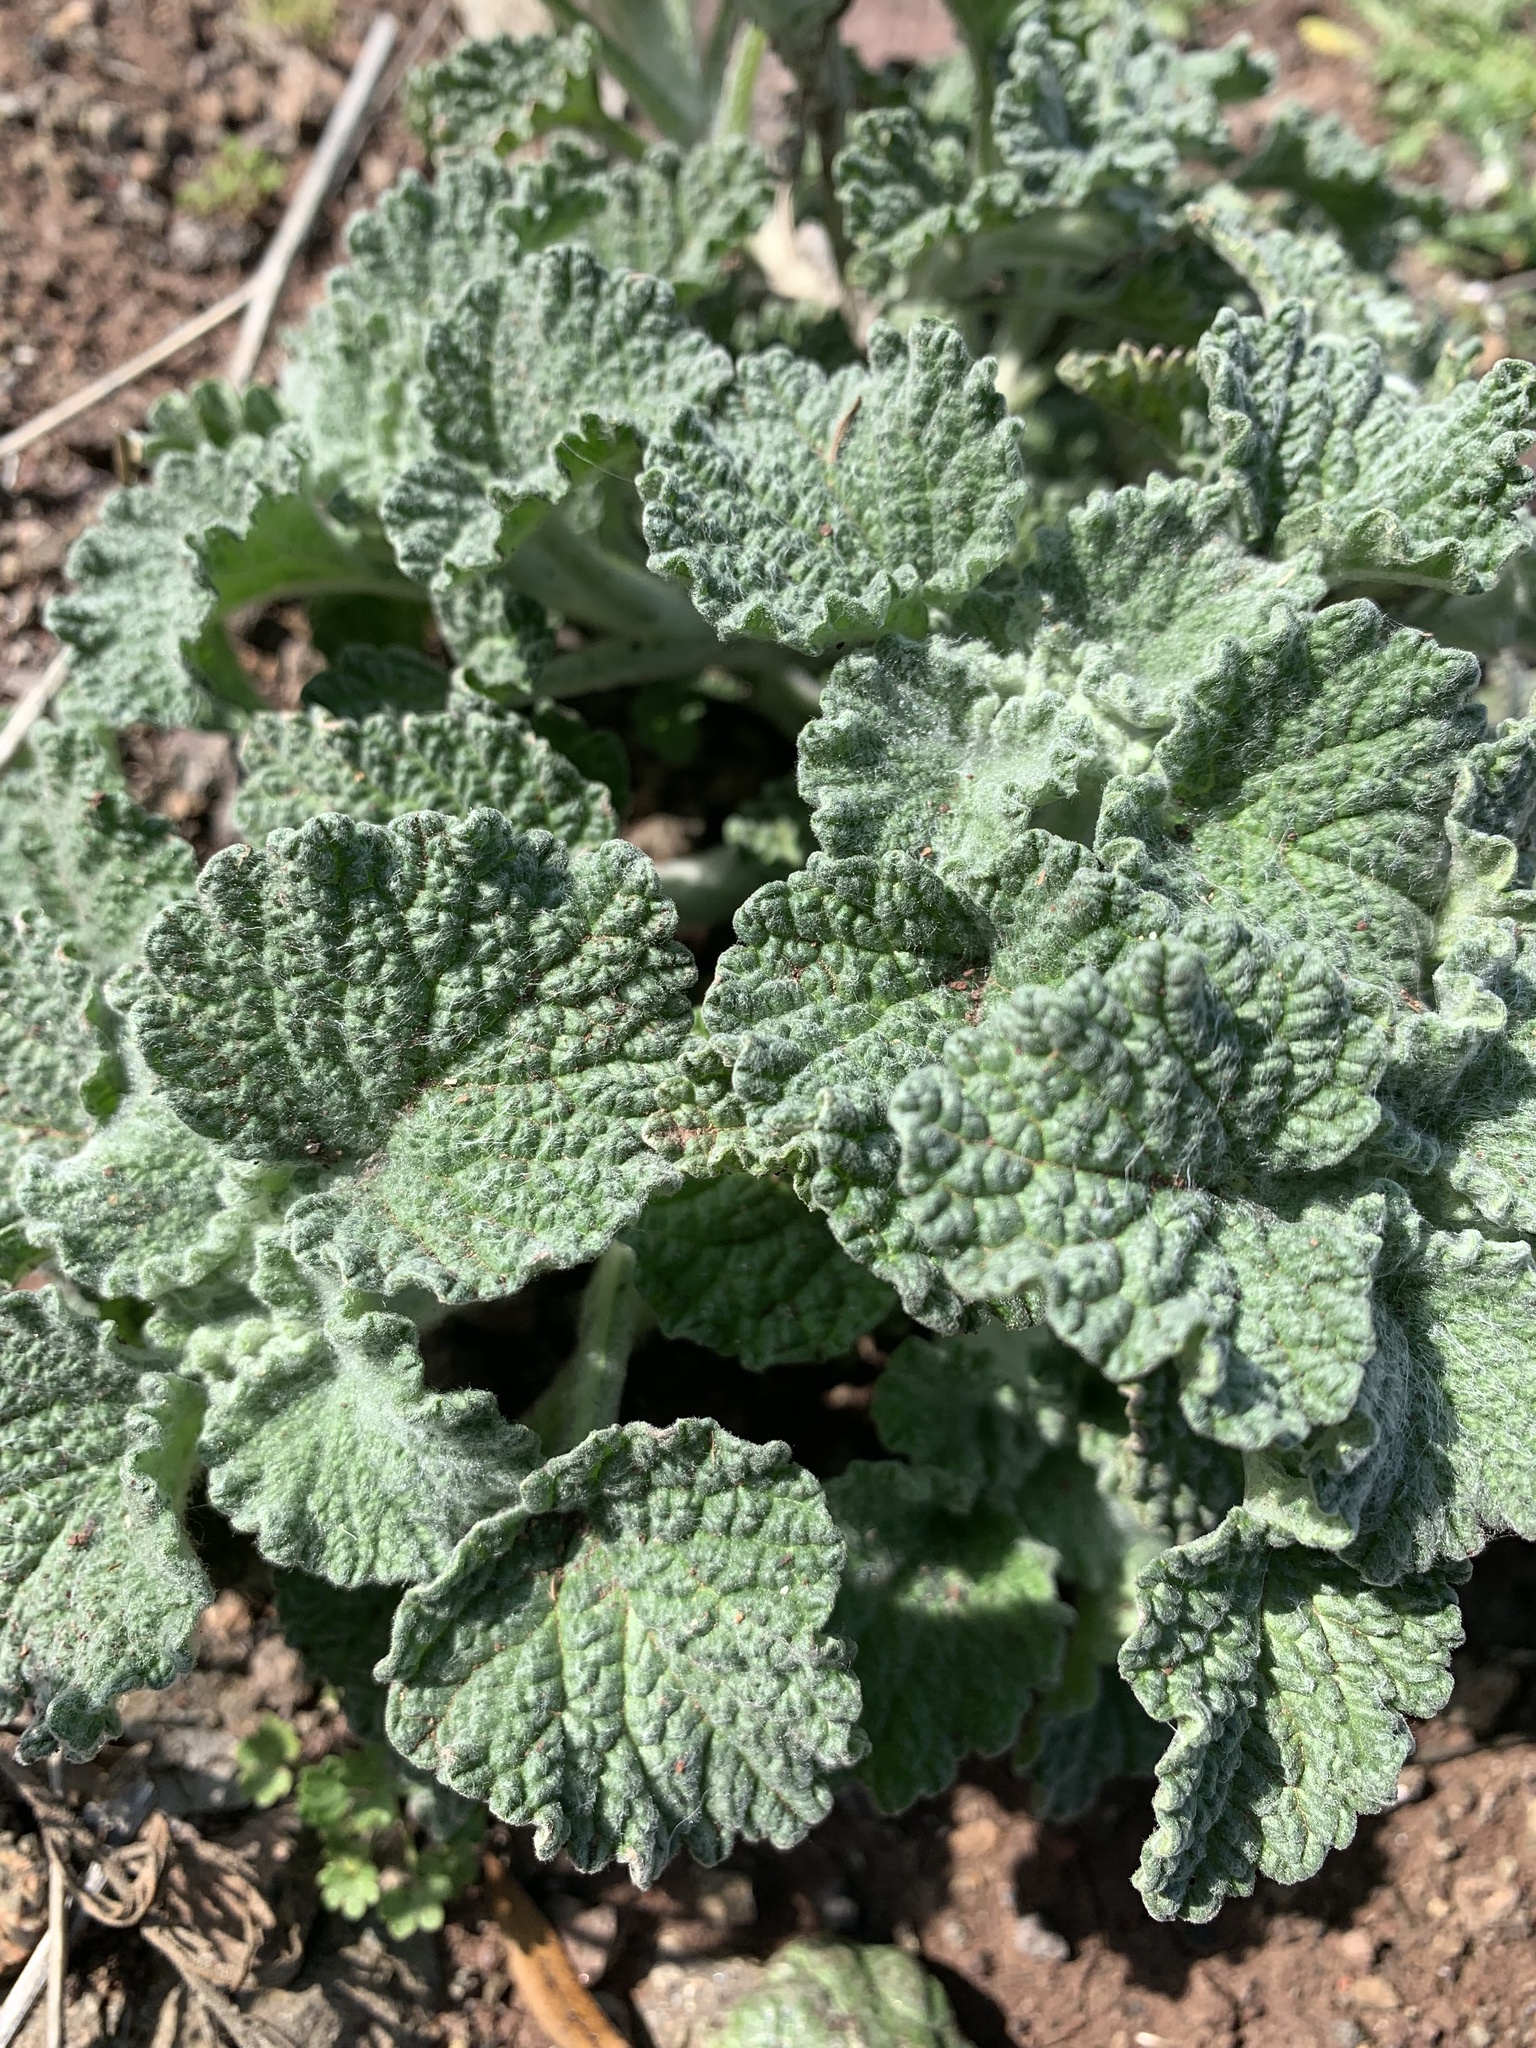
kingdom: Plantae
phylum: Tracheophyta
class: Magnoliopsida
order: Lamiales
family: Lamiaceae
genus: Marrubium
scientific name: Marrubium vulgare
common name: Horehound
